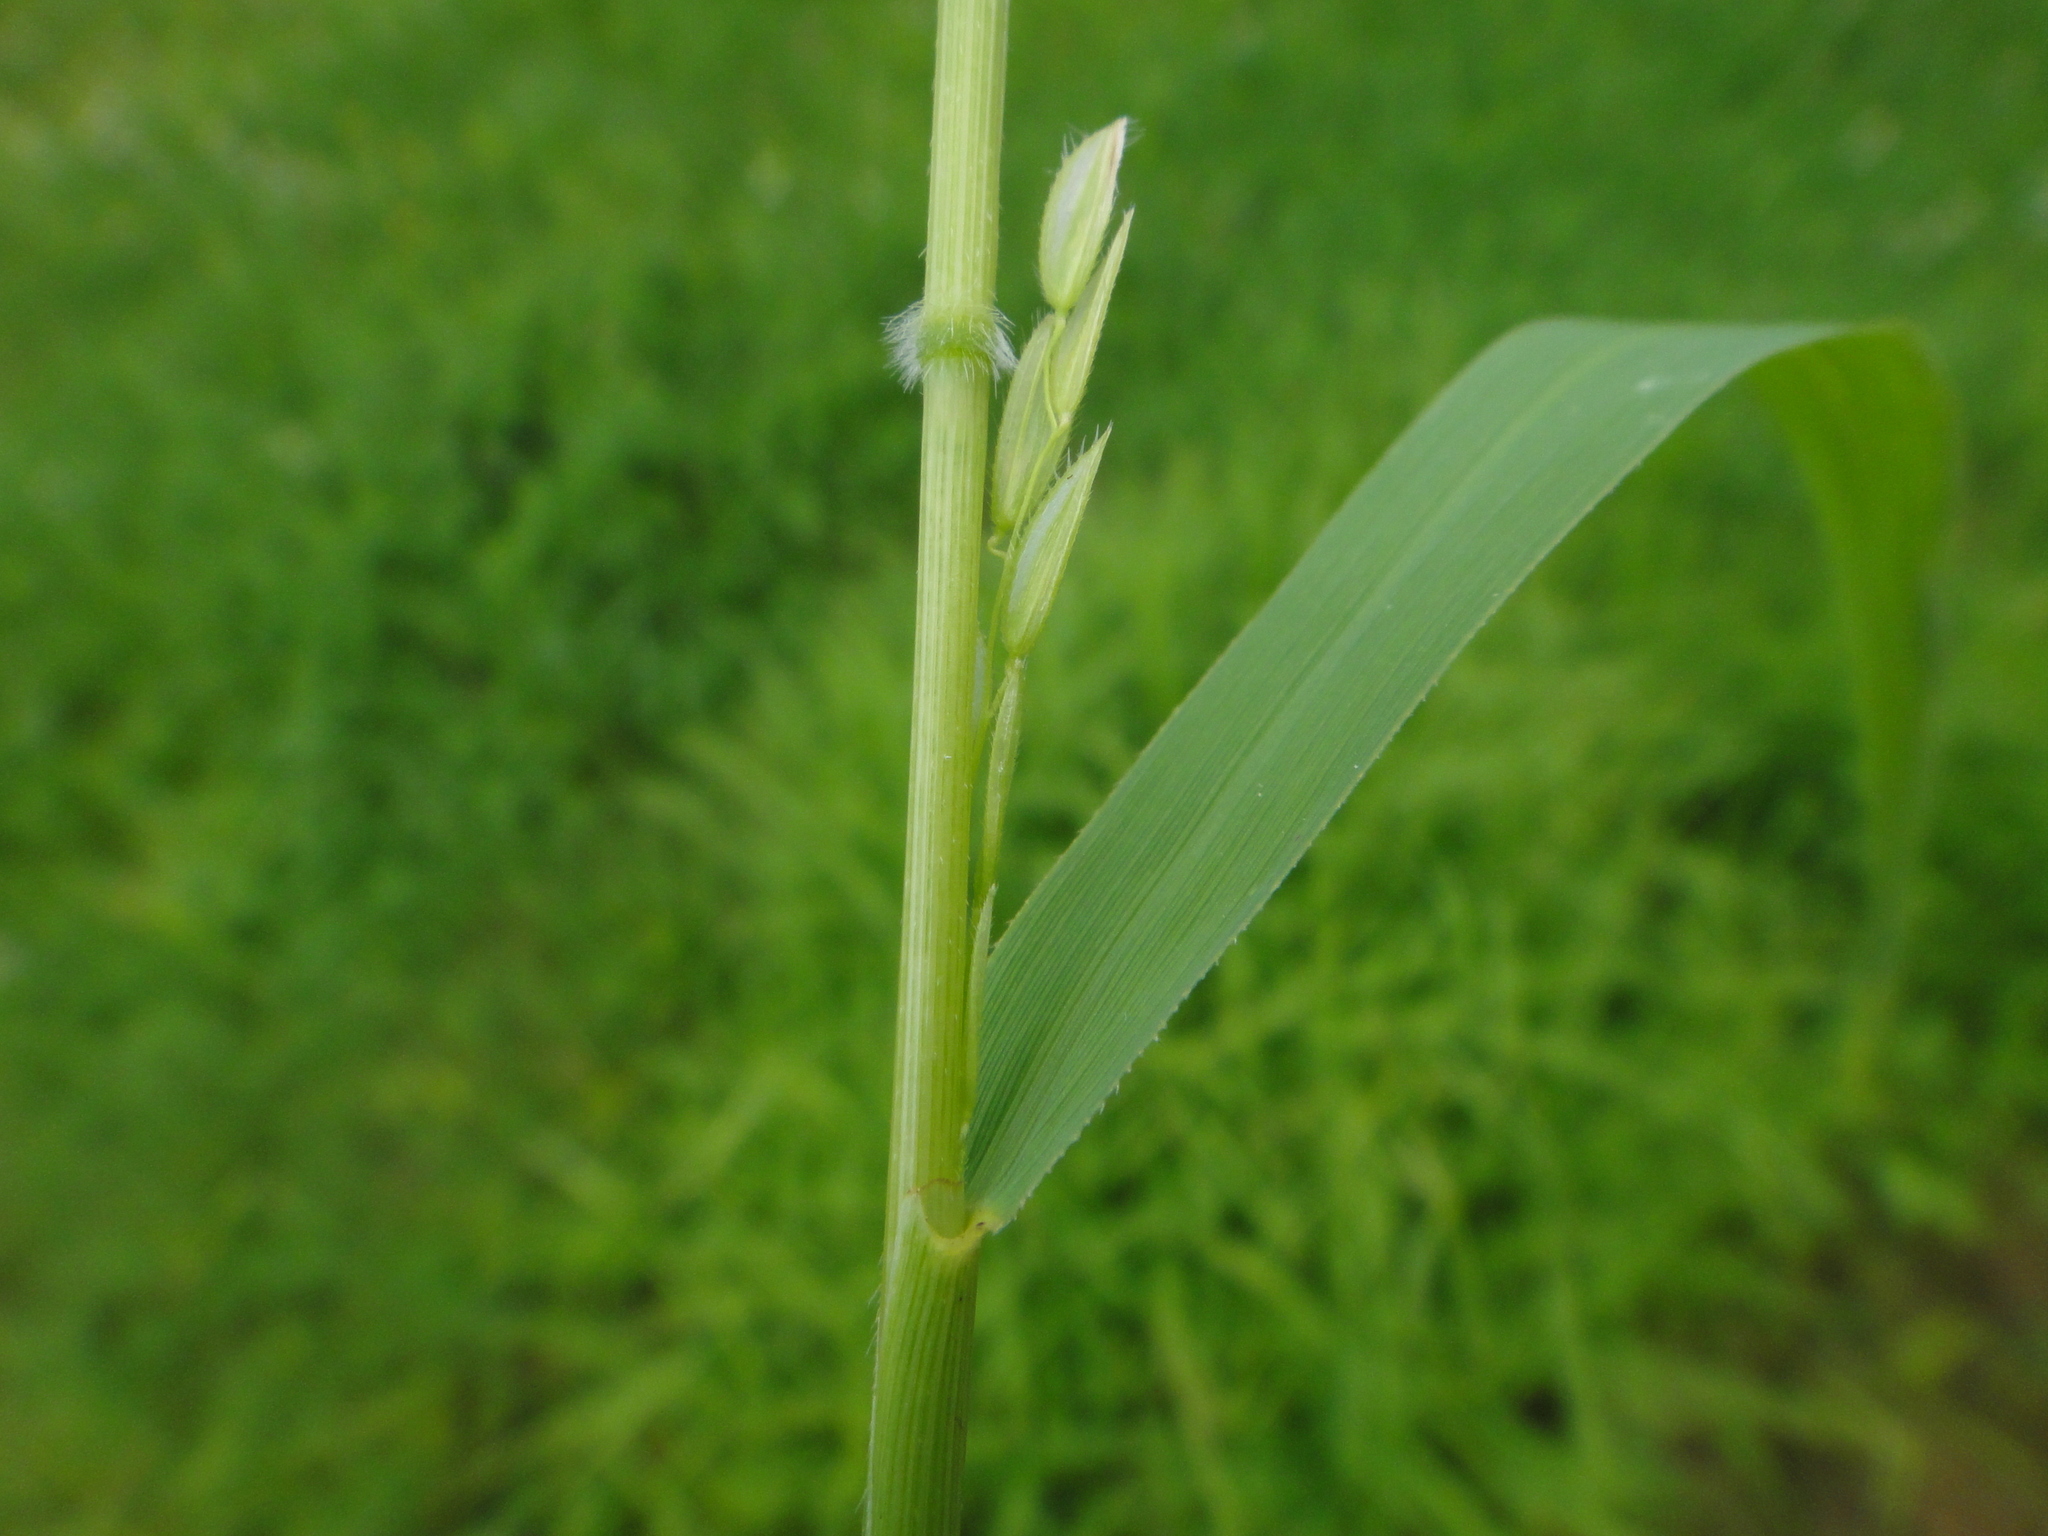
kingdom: Plantae
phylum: Tracheophyta
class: Liliopsida
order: Poales
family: Poaceae
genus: Leersia
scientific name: Leersia oryzoides
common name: Cut-grass
